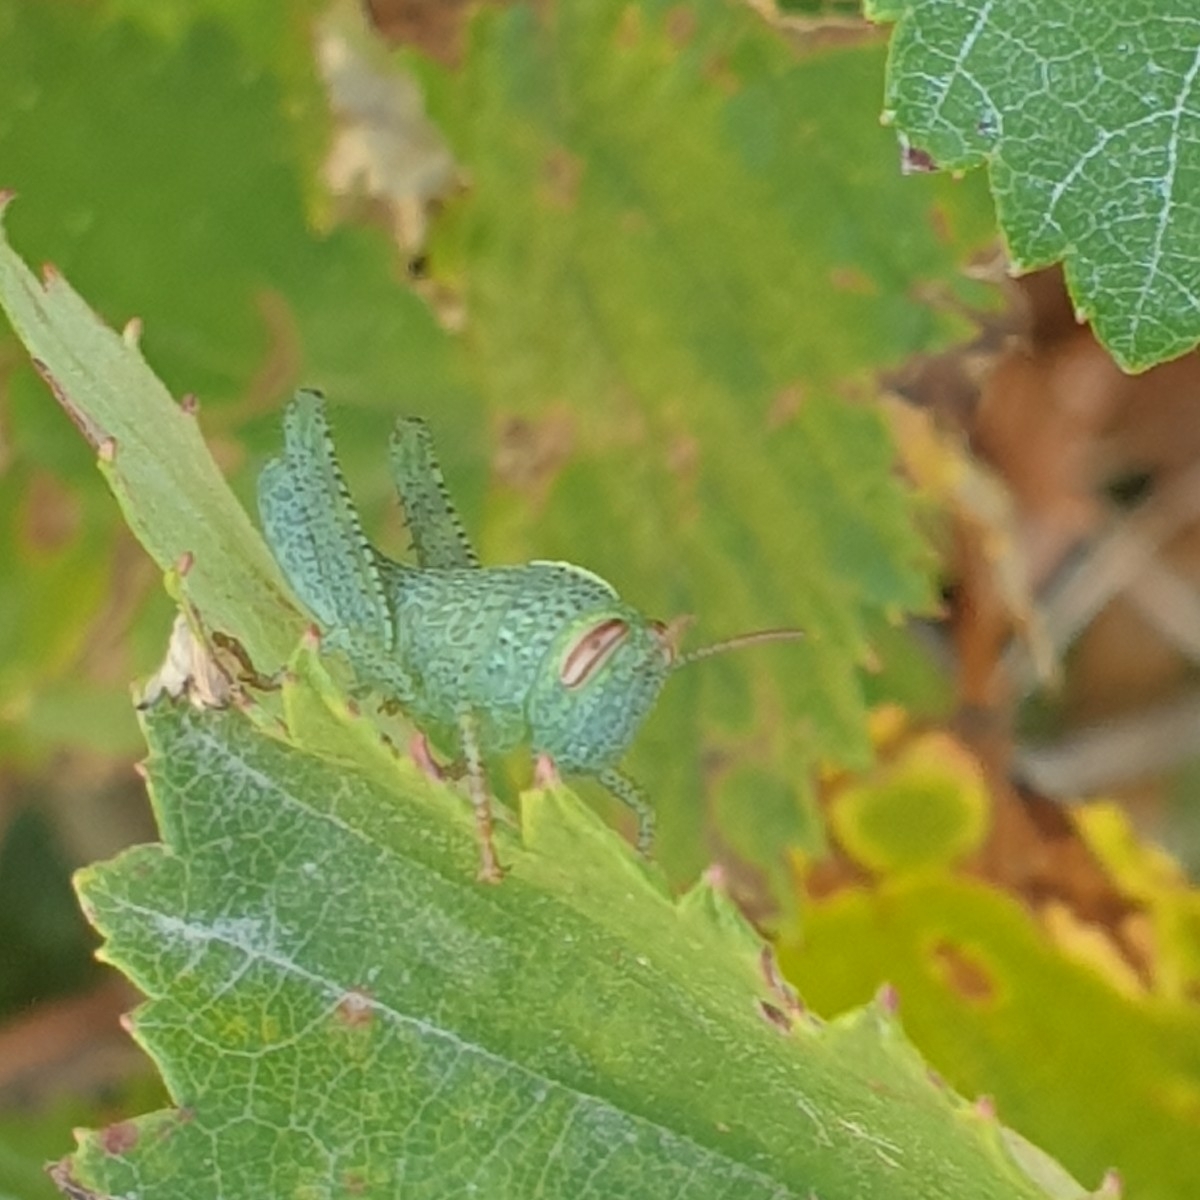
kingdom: Animalia
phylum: Arthropoda
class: Insecta
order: Orthoptera
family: Acrididae
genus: Anacridium
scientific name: Anacridium aegyptium
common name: Egyptian grasshopper
